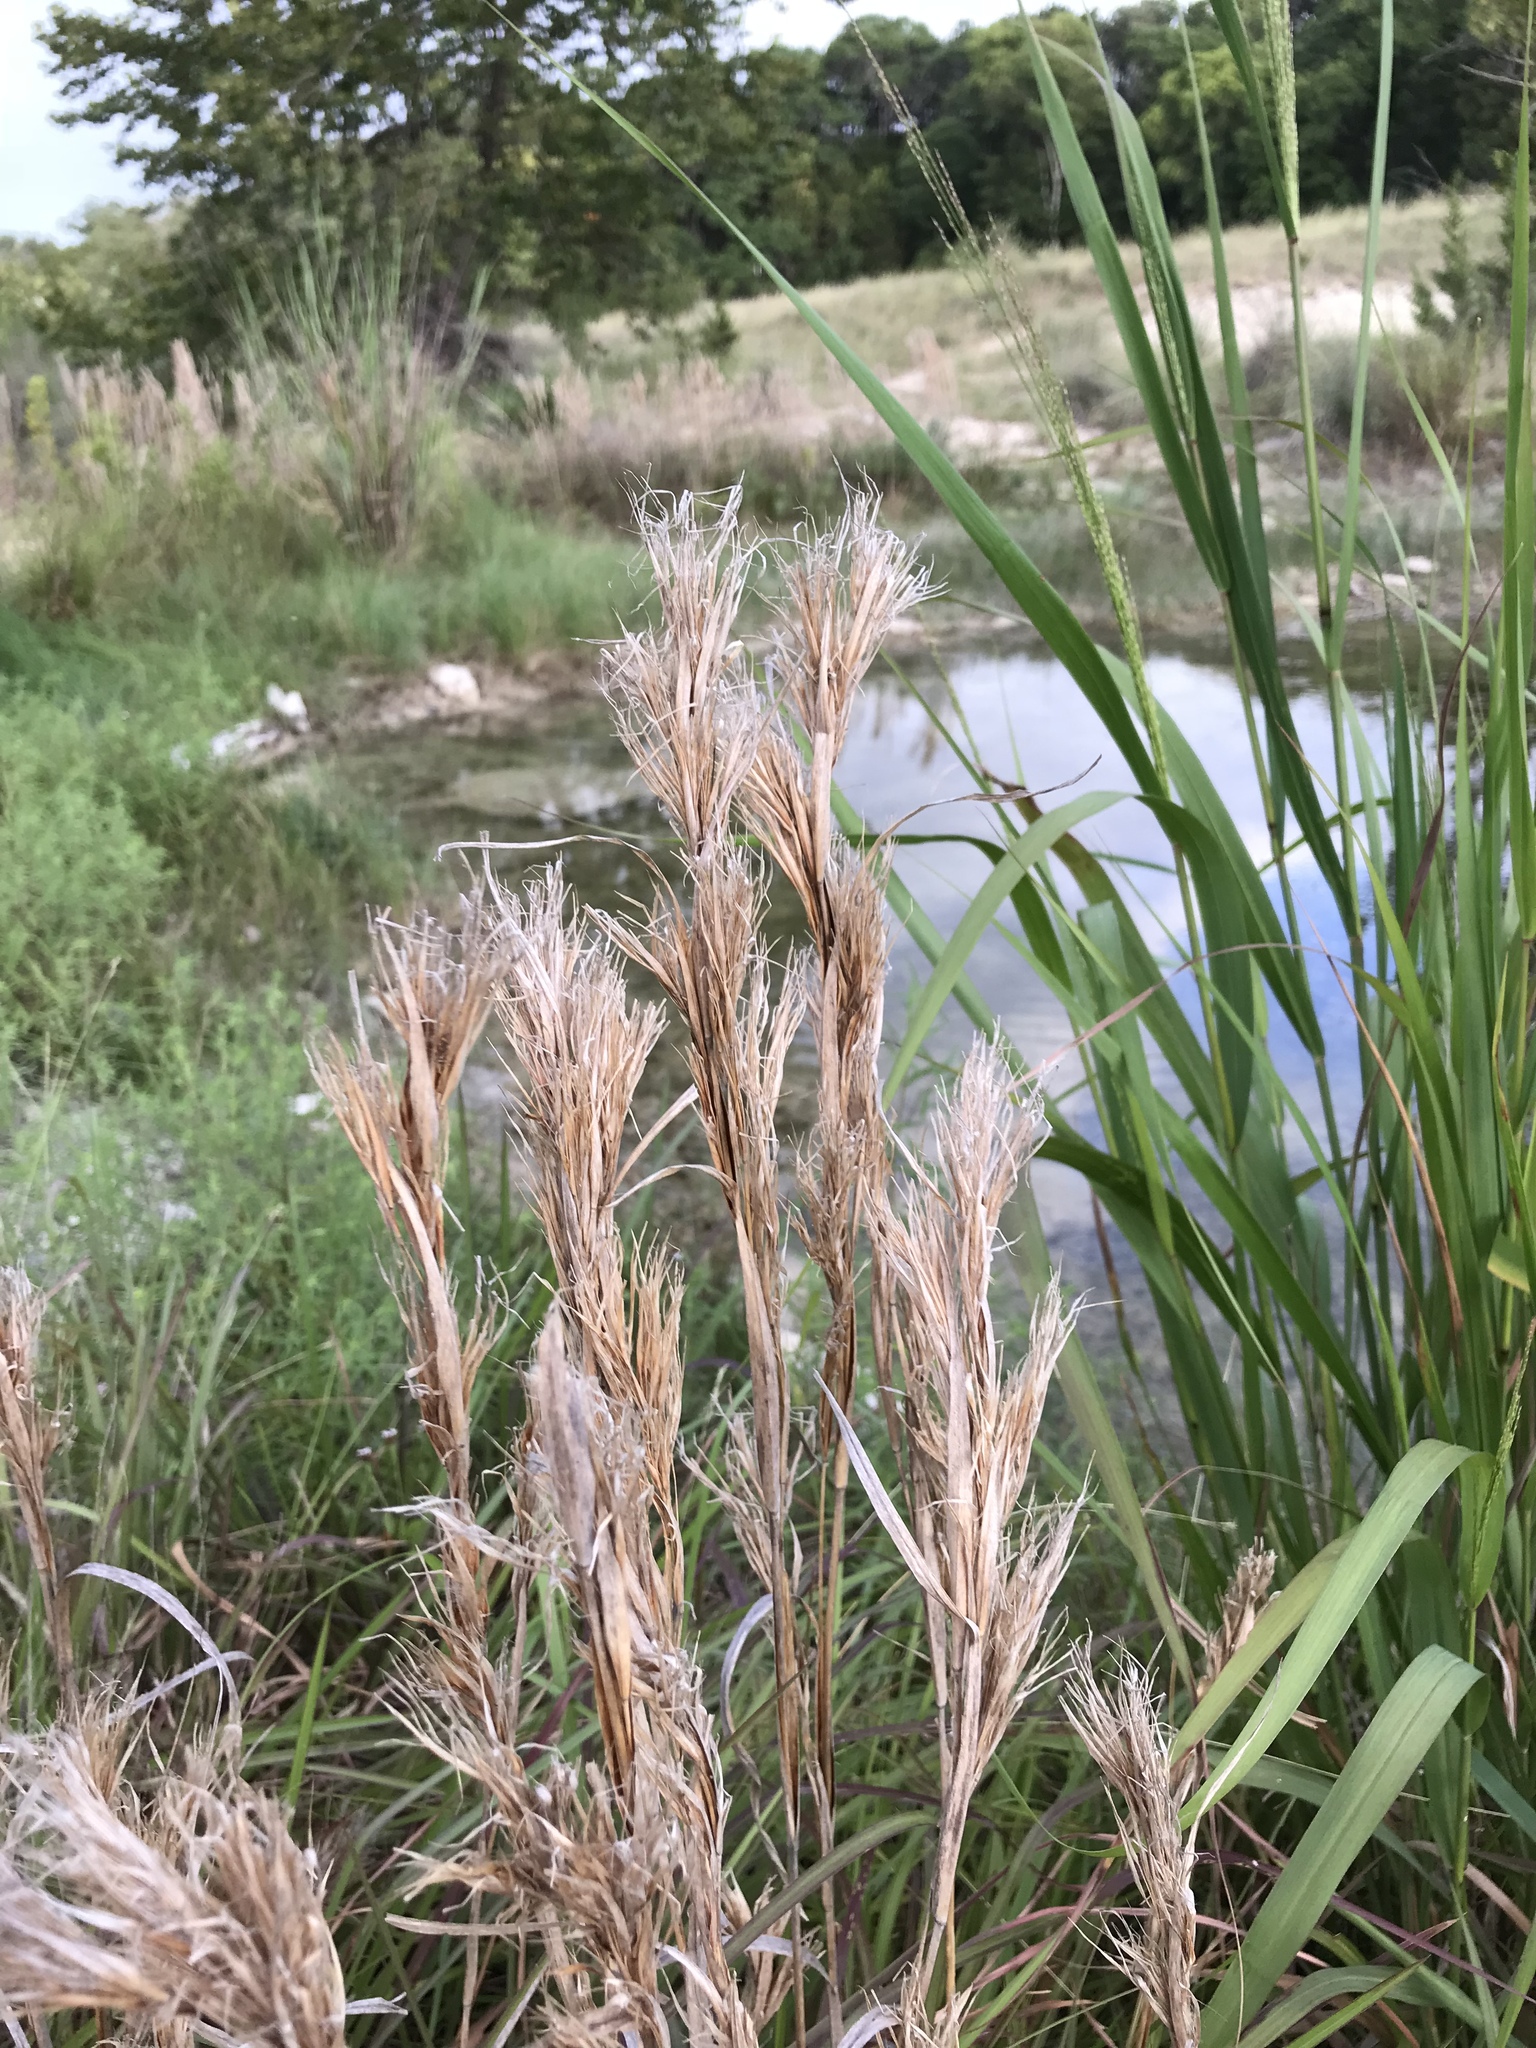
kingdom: Plantae
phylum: Tracheophyta
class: Liliopsida
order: Poales
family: Poaceae
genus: Andropogon
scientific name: Andropogon tenuispatheus
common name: Bushy bluestem
